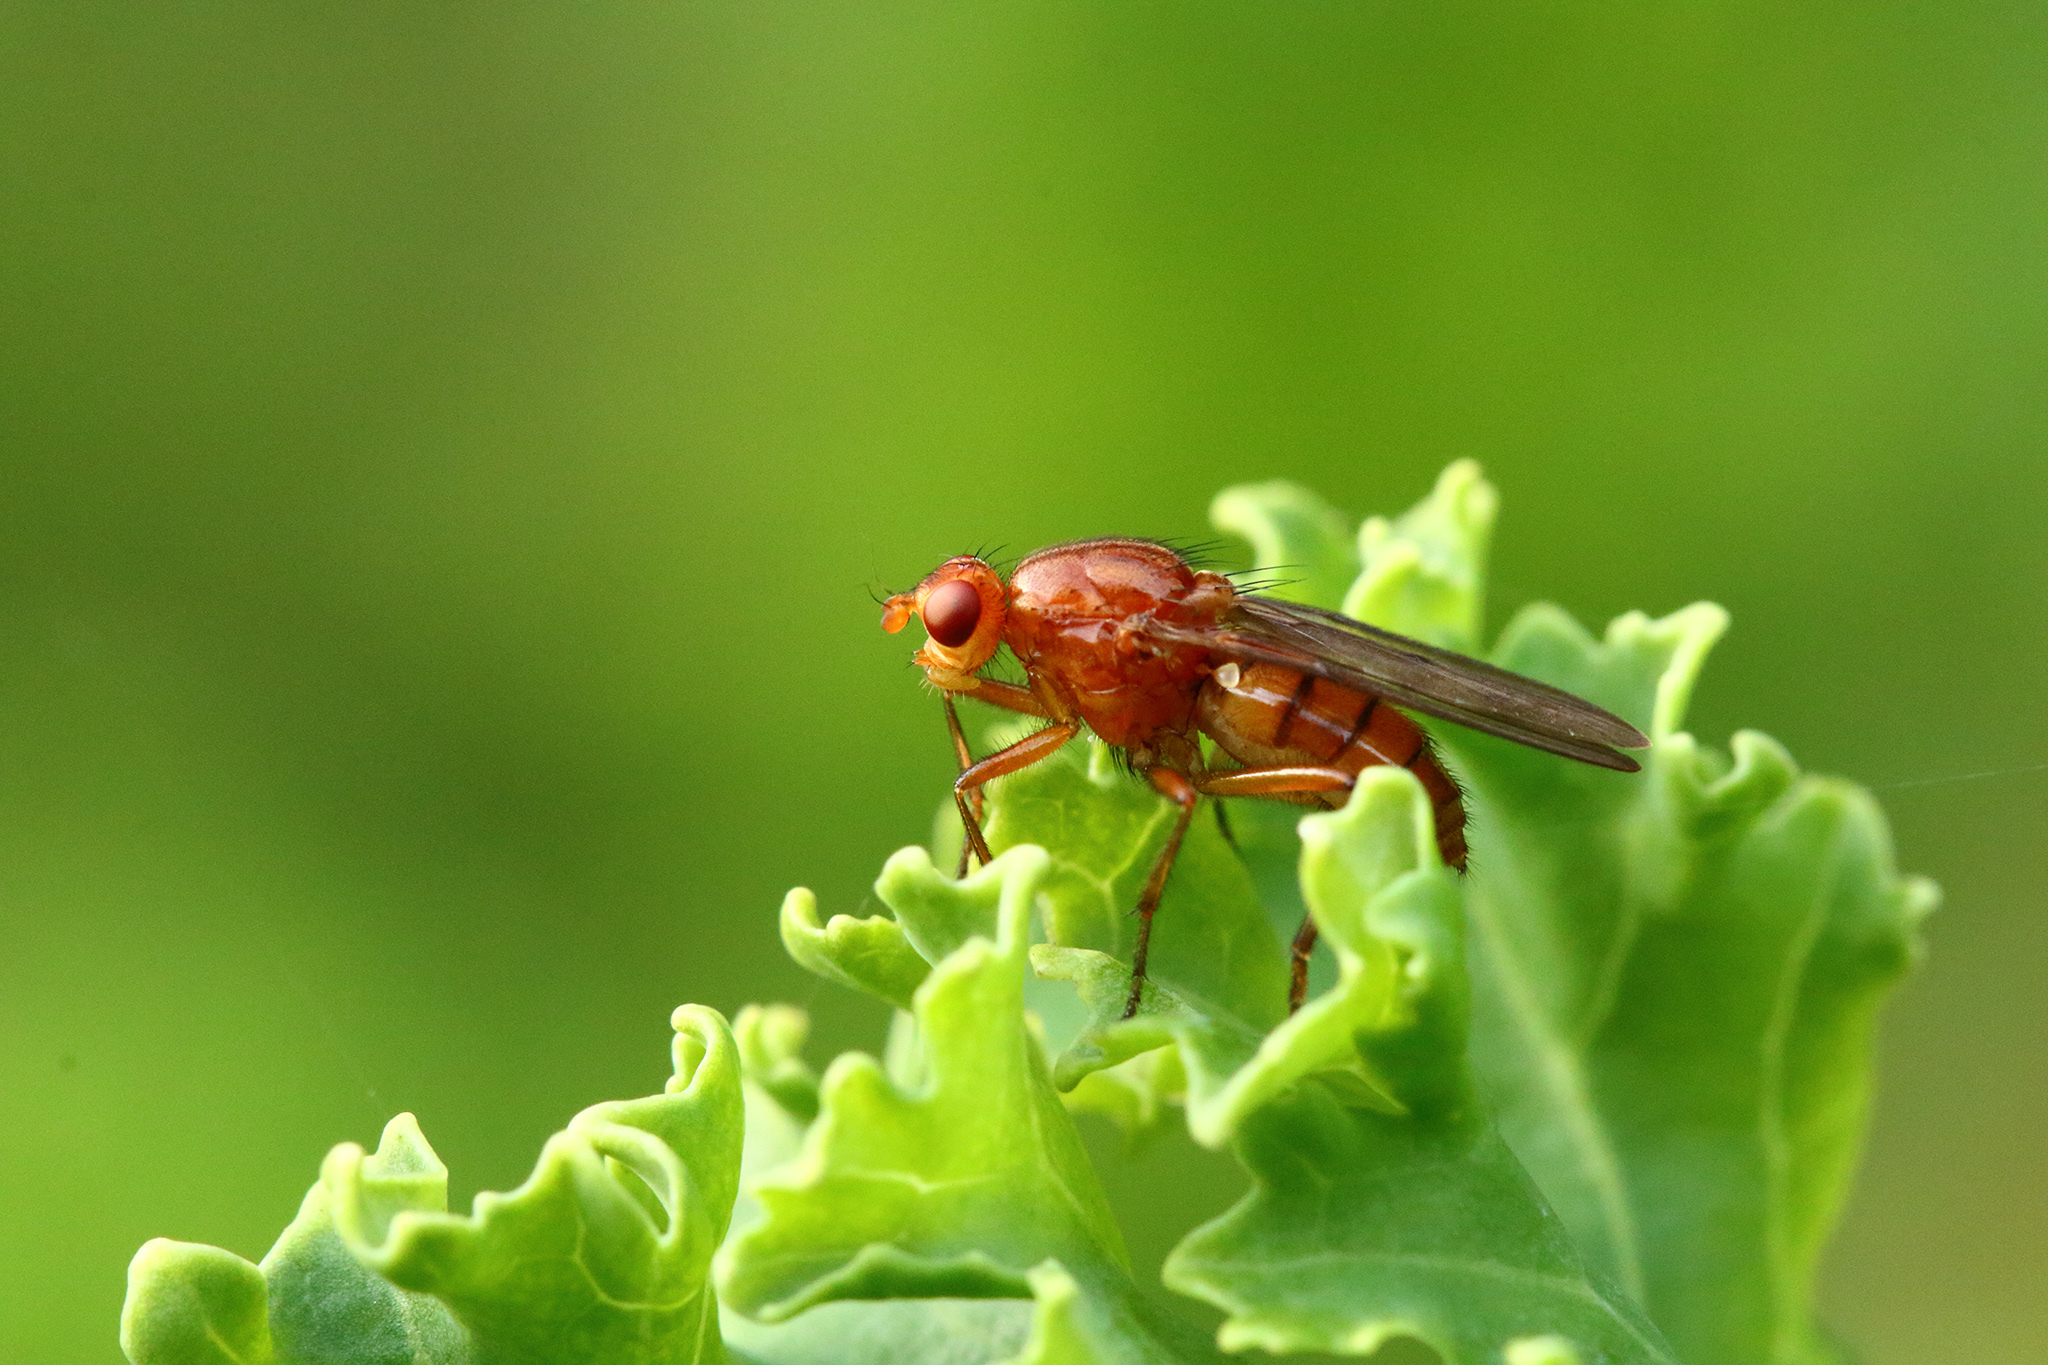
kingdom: Animalia
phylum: Arthropoda
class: Insecta
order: Diptera
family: Dryomyzidae
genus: Dryomyza
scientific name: Dryomyza anilis
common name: Marsh fly
